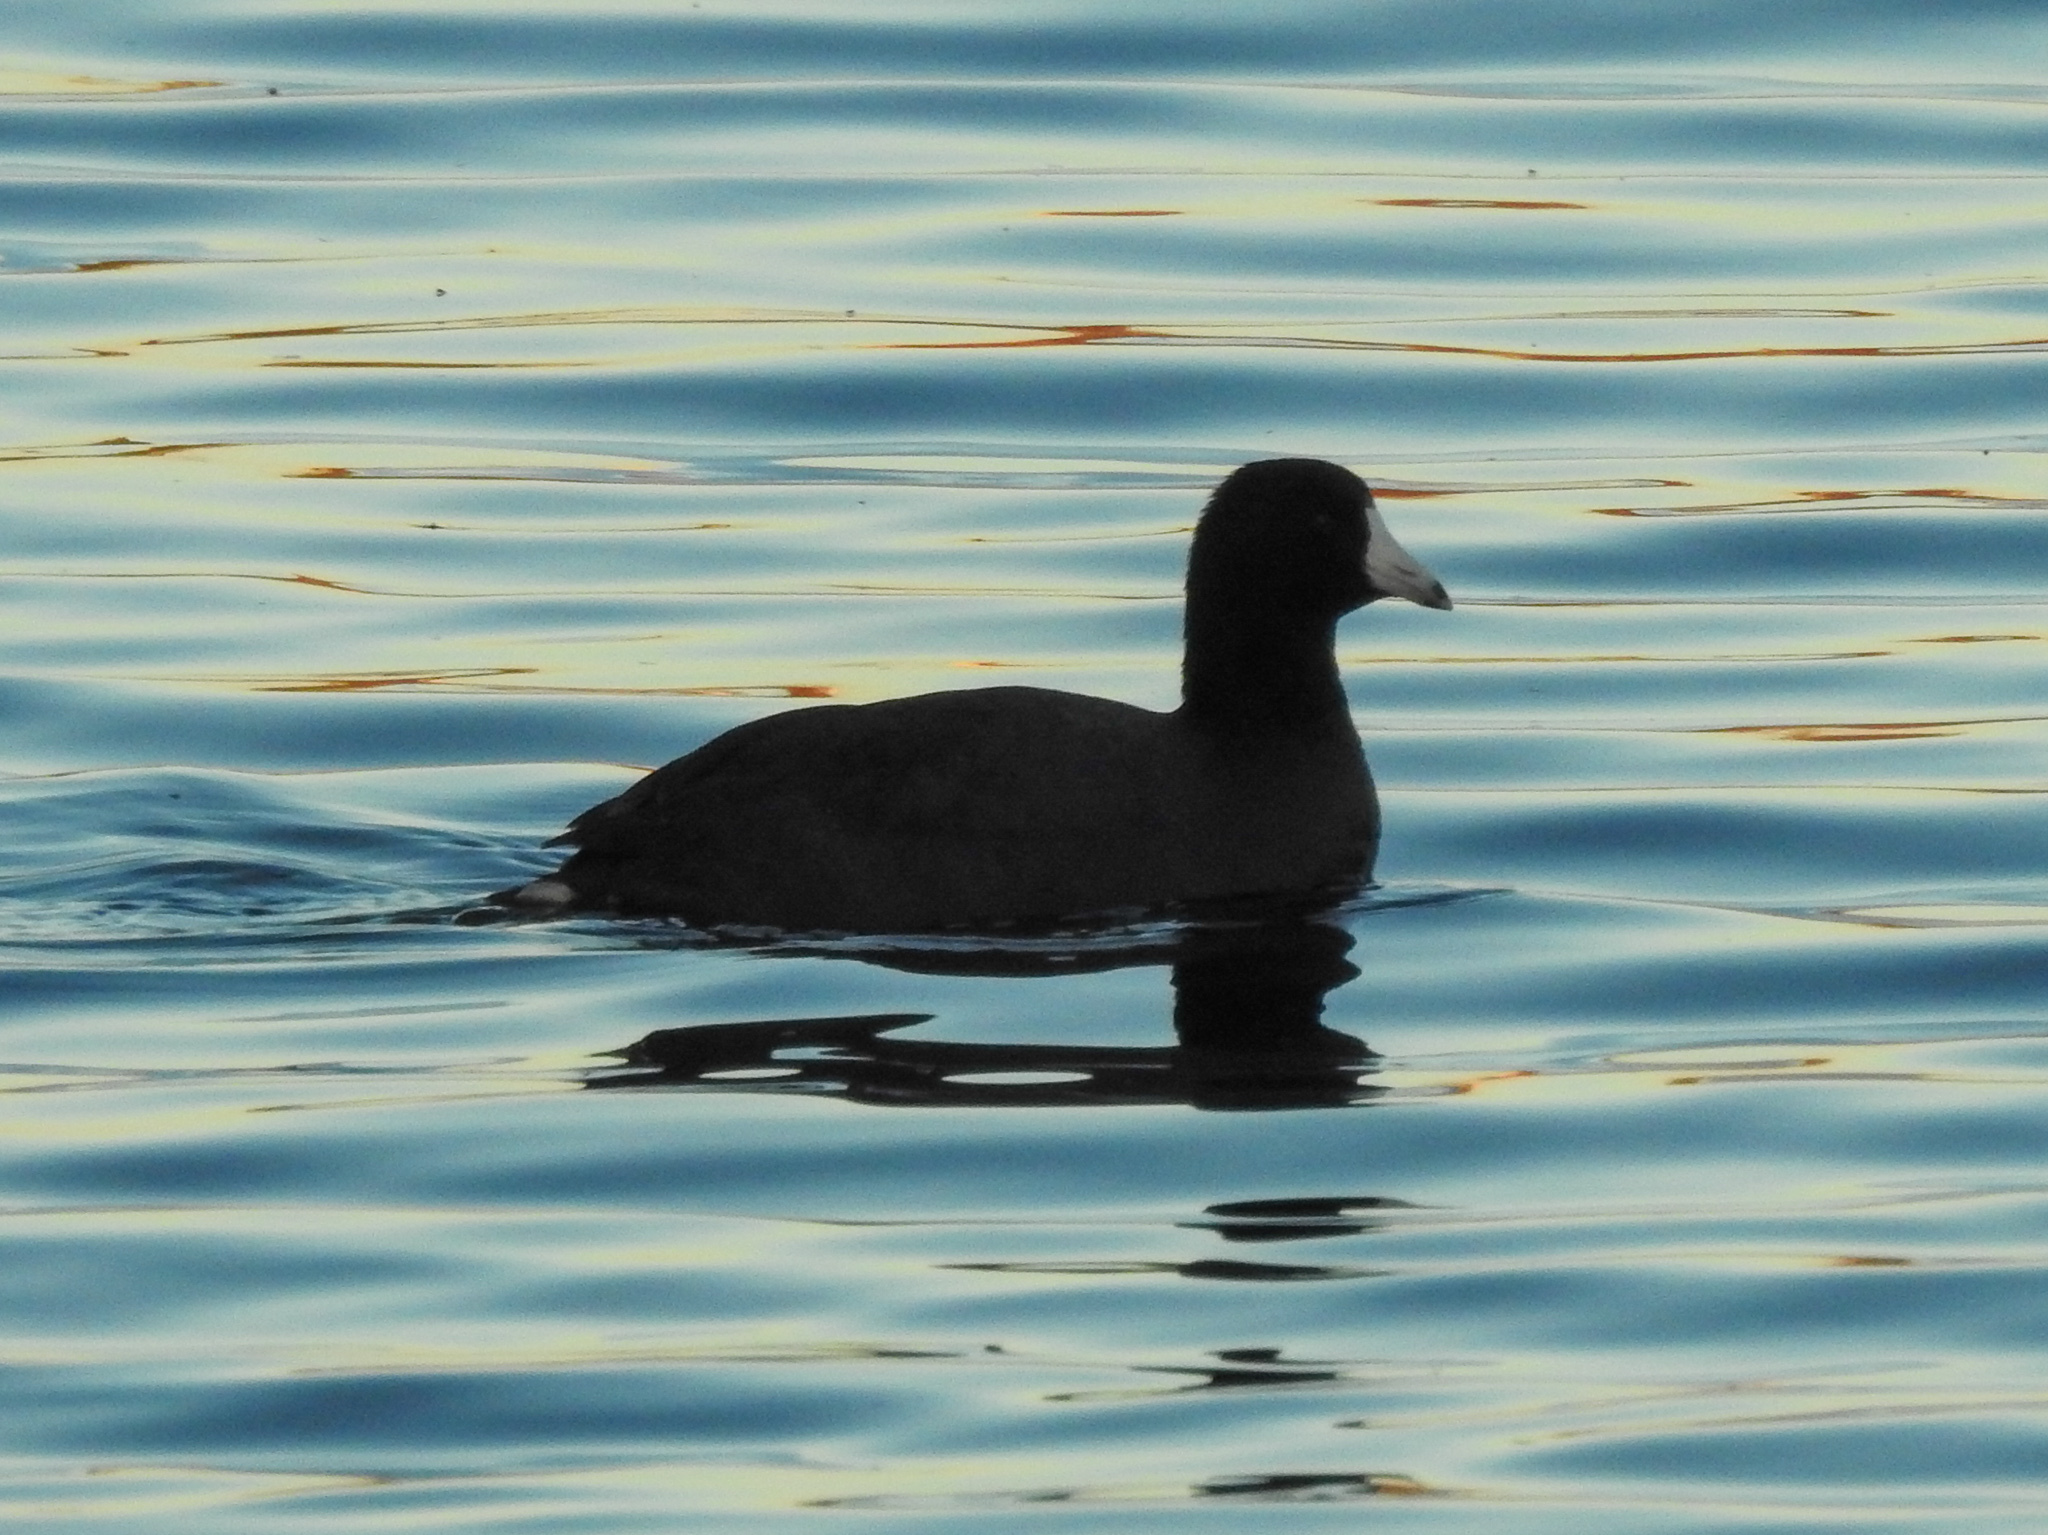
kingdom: Animalia
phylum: Chordata
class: Aves
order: Gruiformes
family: Rallidae
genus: Fulica
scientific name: Fulica americana
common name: American coot
